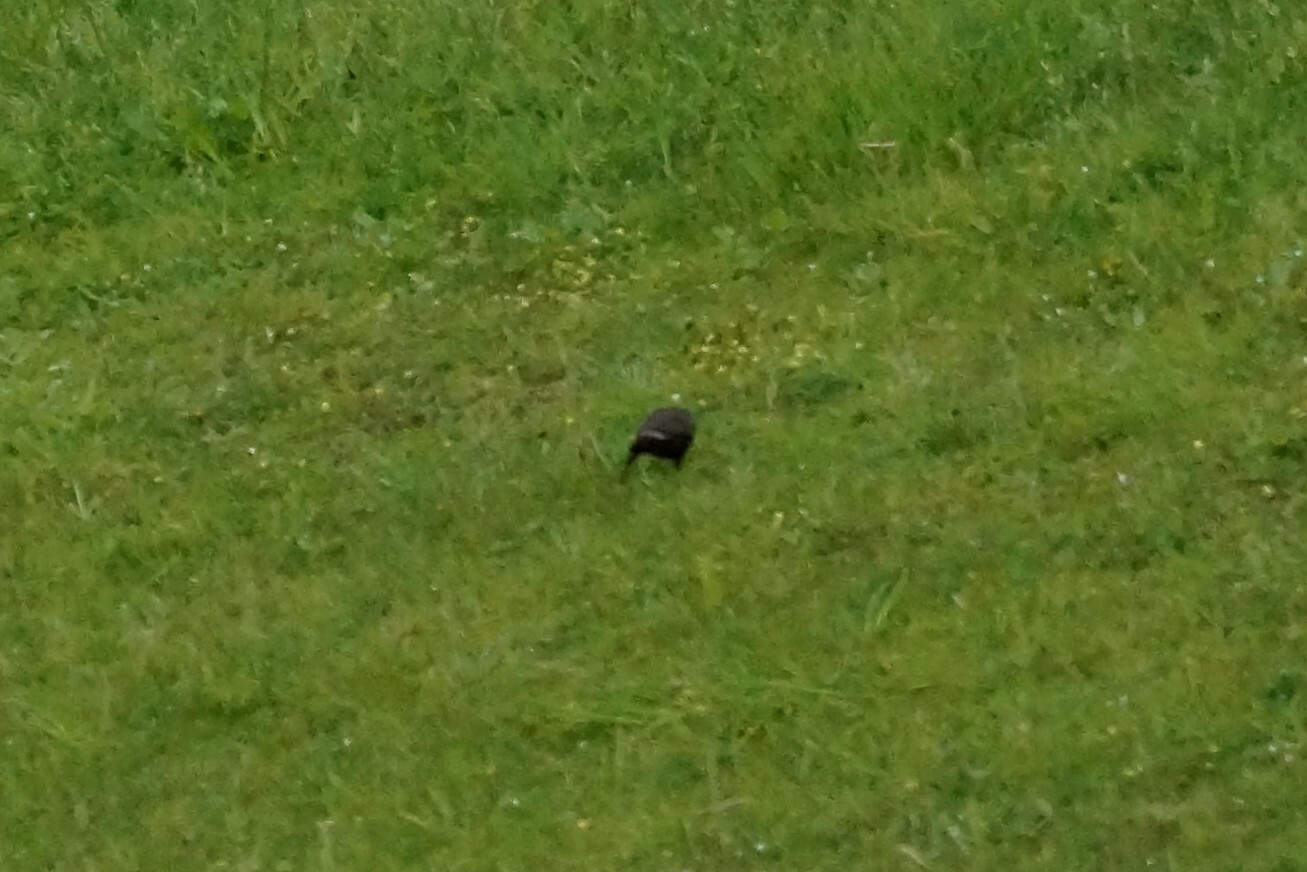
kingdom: Animalia
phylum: Chordata
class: Aves
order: Passeriformes
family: Sturnidae
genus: Sturnus
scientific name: Sturnus vulgaris
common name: Common starling
